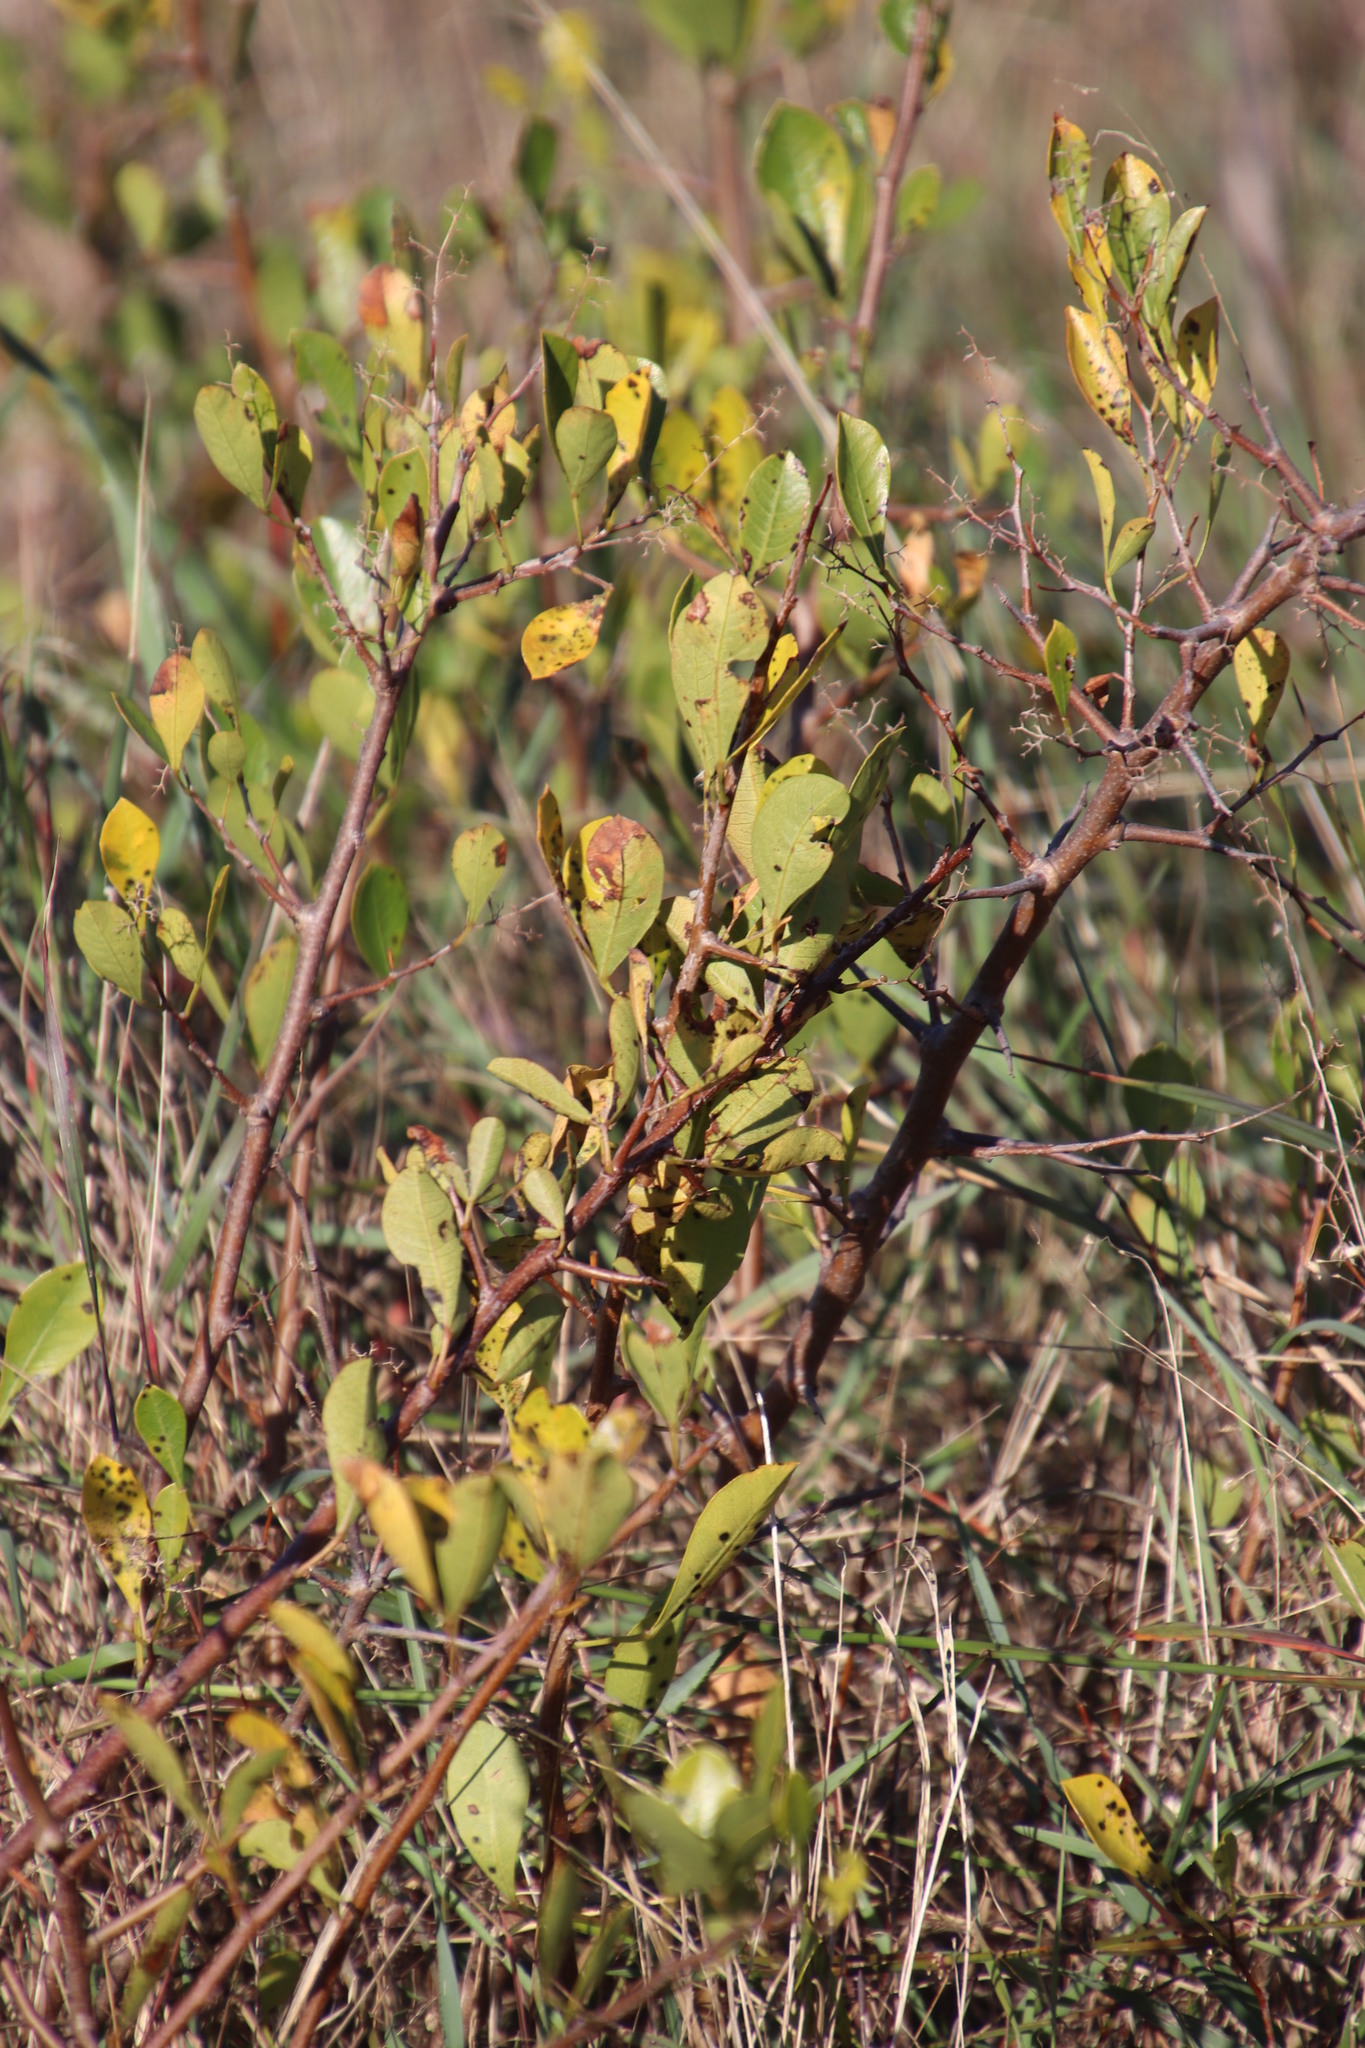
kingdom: Plantae
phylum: Tracheophyta
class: Magnoliopsida
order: Sapindales
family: Anacardiaceae
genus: Searsia
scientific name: Searsia laevigata
